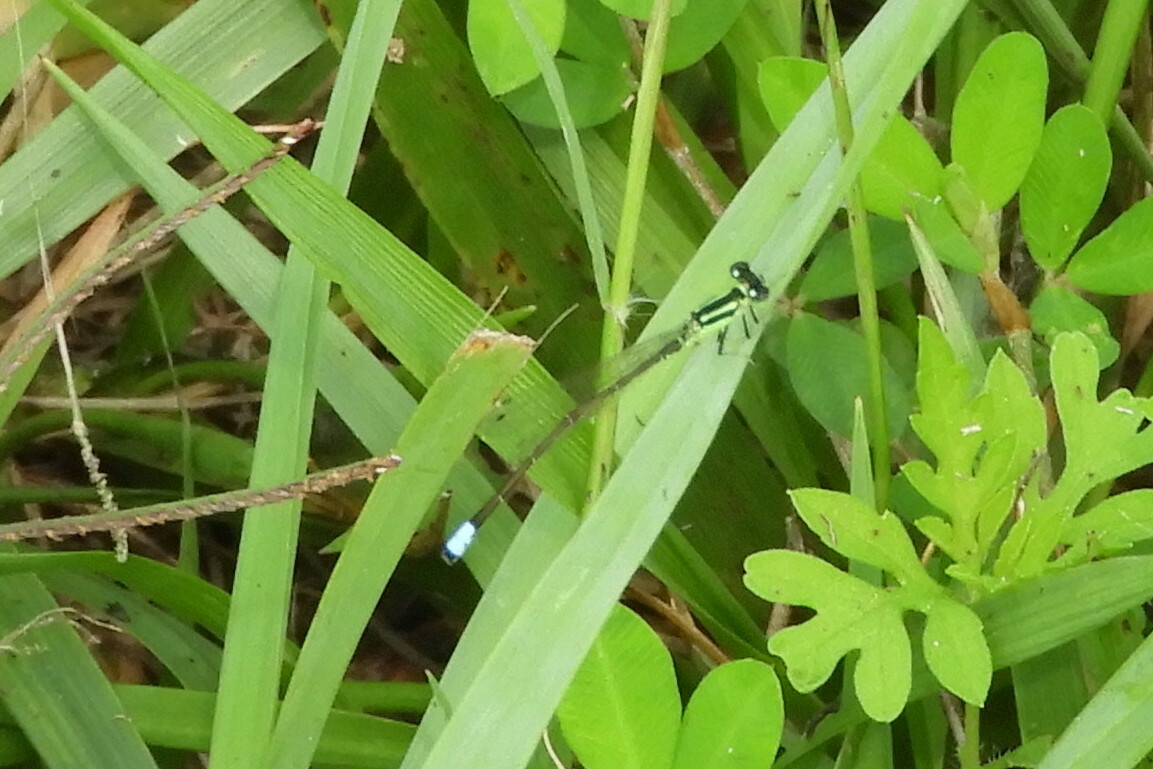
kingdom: Animalia
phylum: Arthropoda
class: Insecta
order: Odonata
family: Coenagrionidae
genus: Ischnura
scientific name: Ischnura verticalis
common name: Eastern forktail
